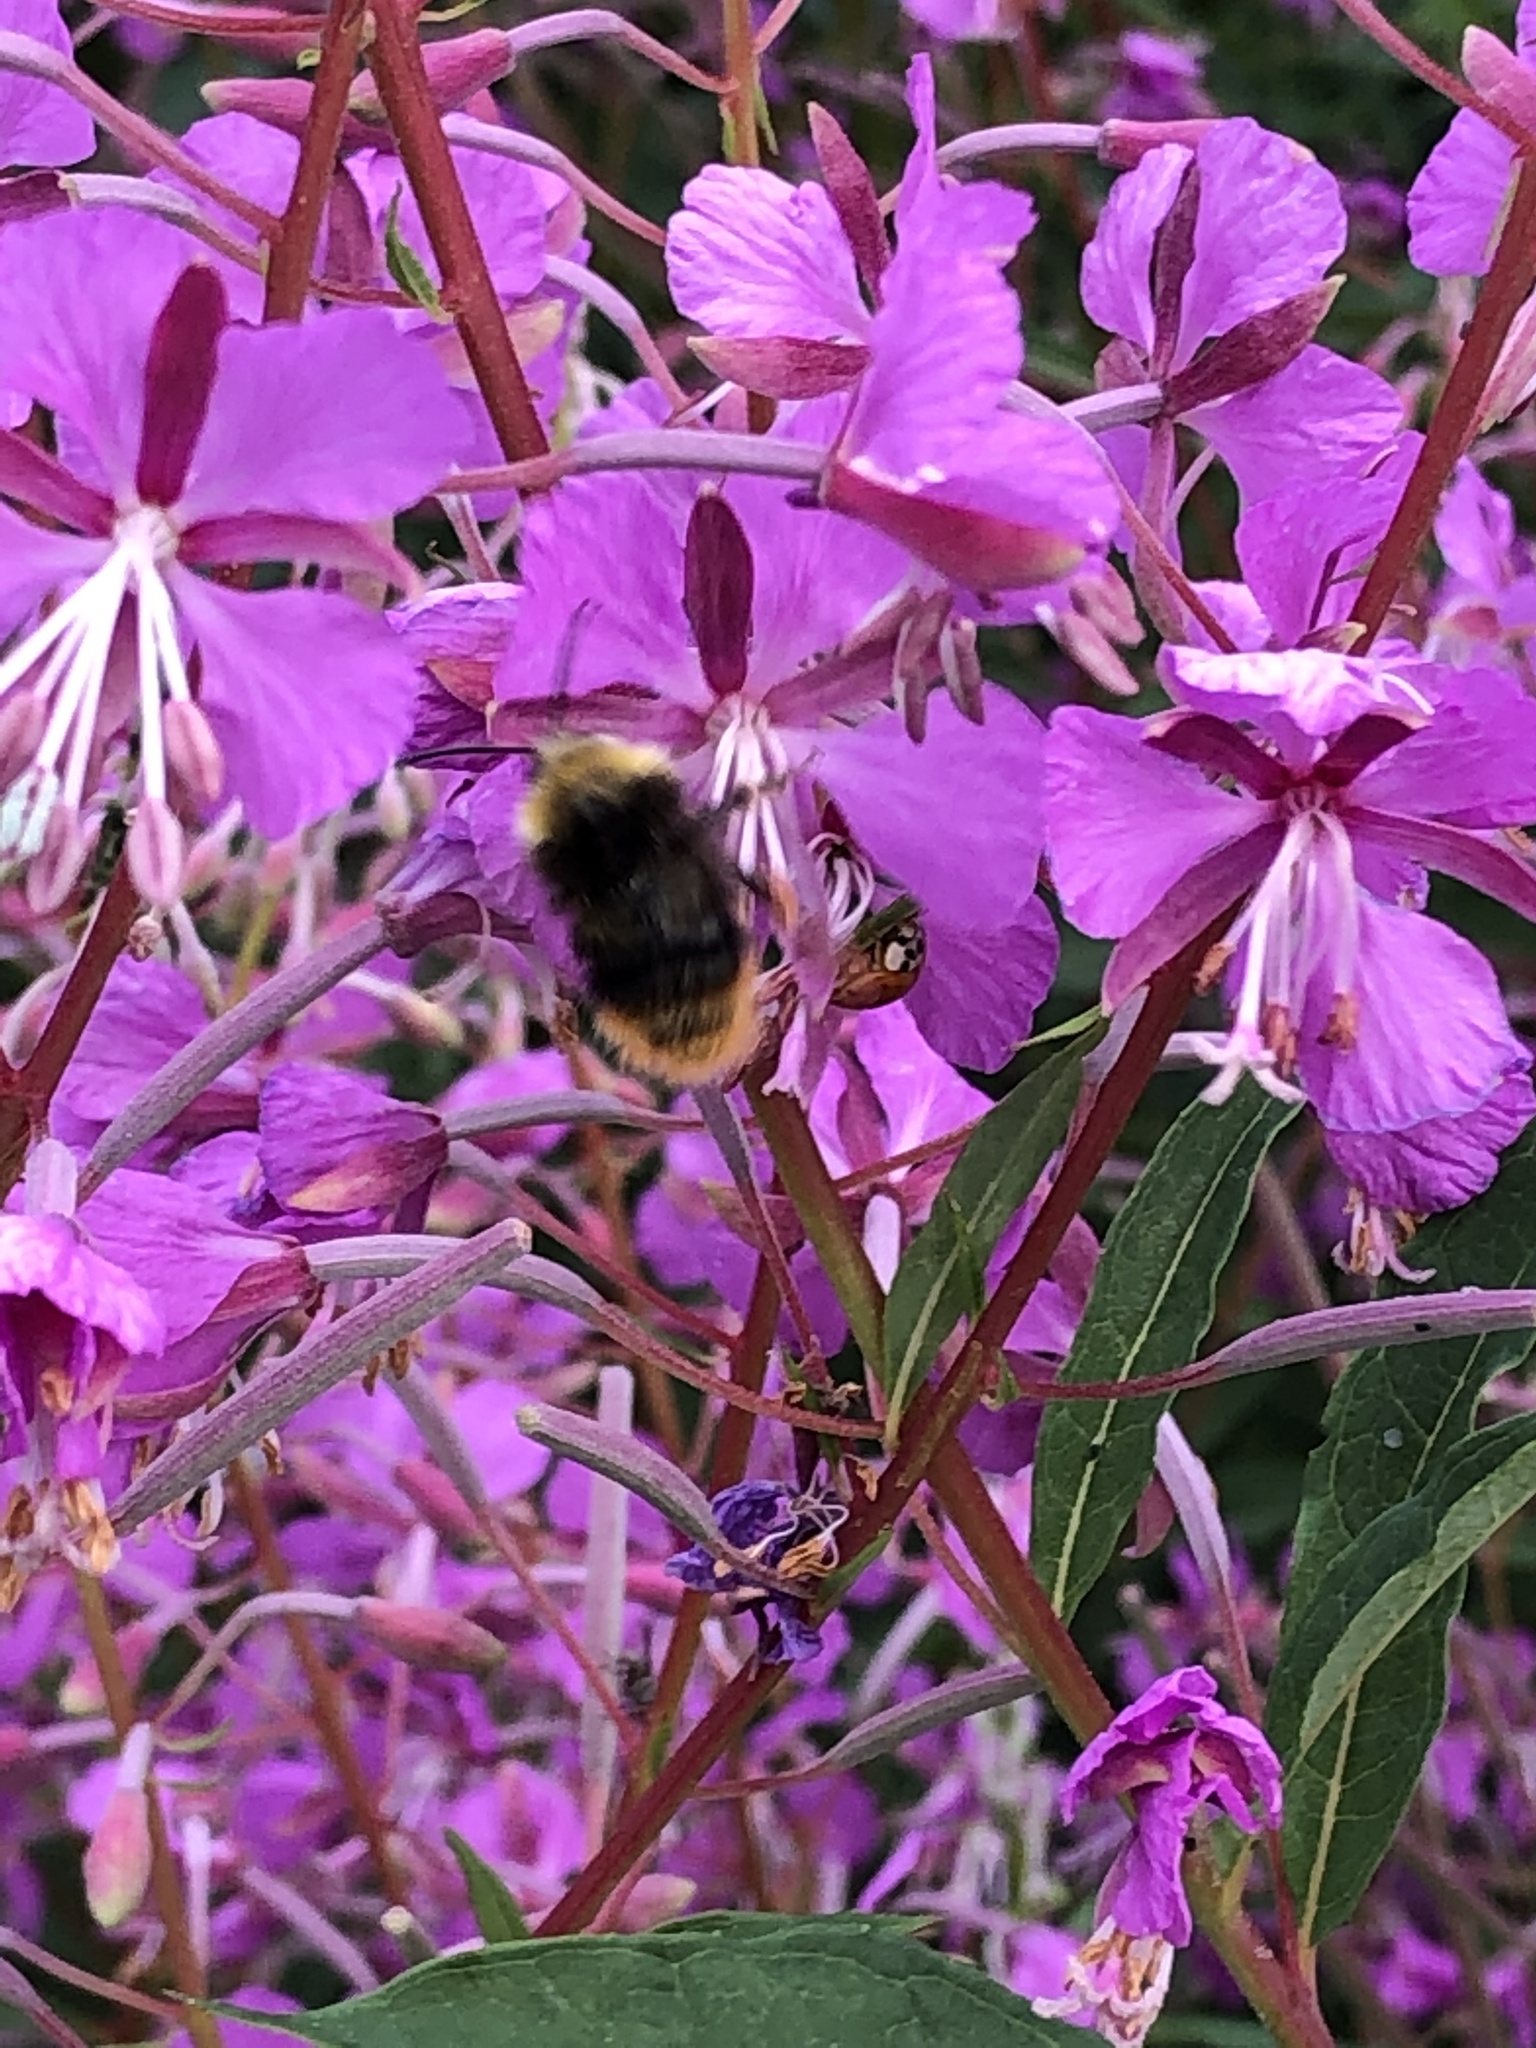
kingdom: Animalia
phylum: Arthropoda
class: Insecta
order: Hymenoptera
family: Apidae
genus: Bombus
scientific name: Bombus pratorum
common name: Early humble-bee
